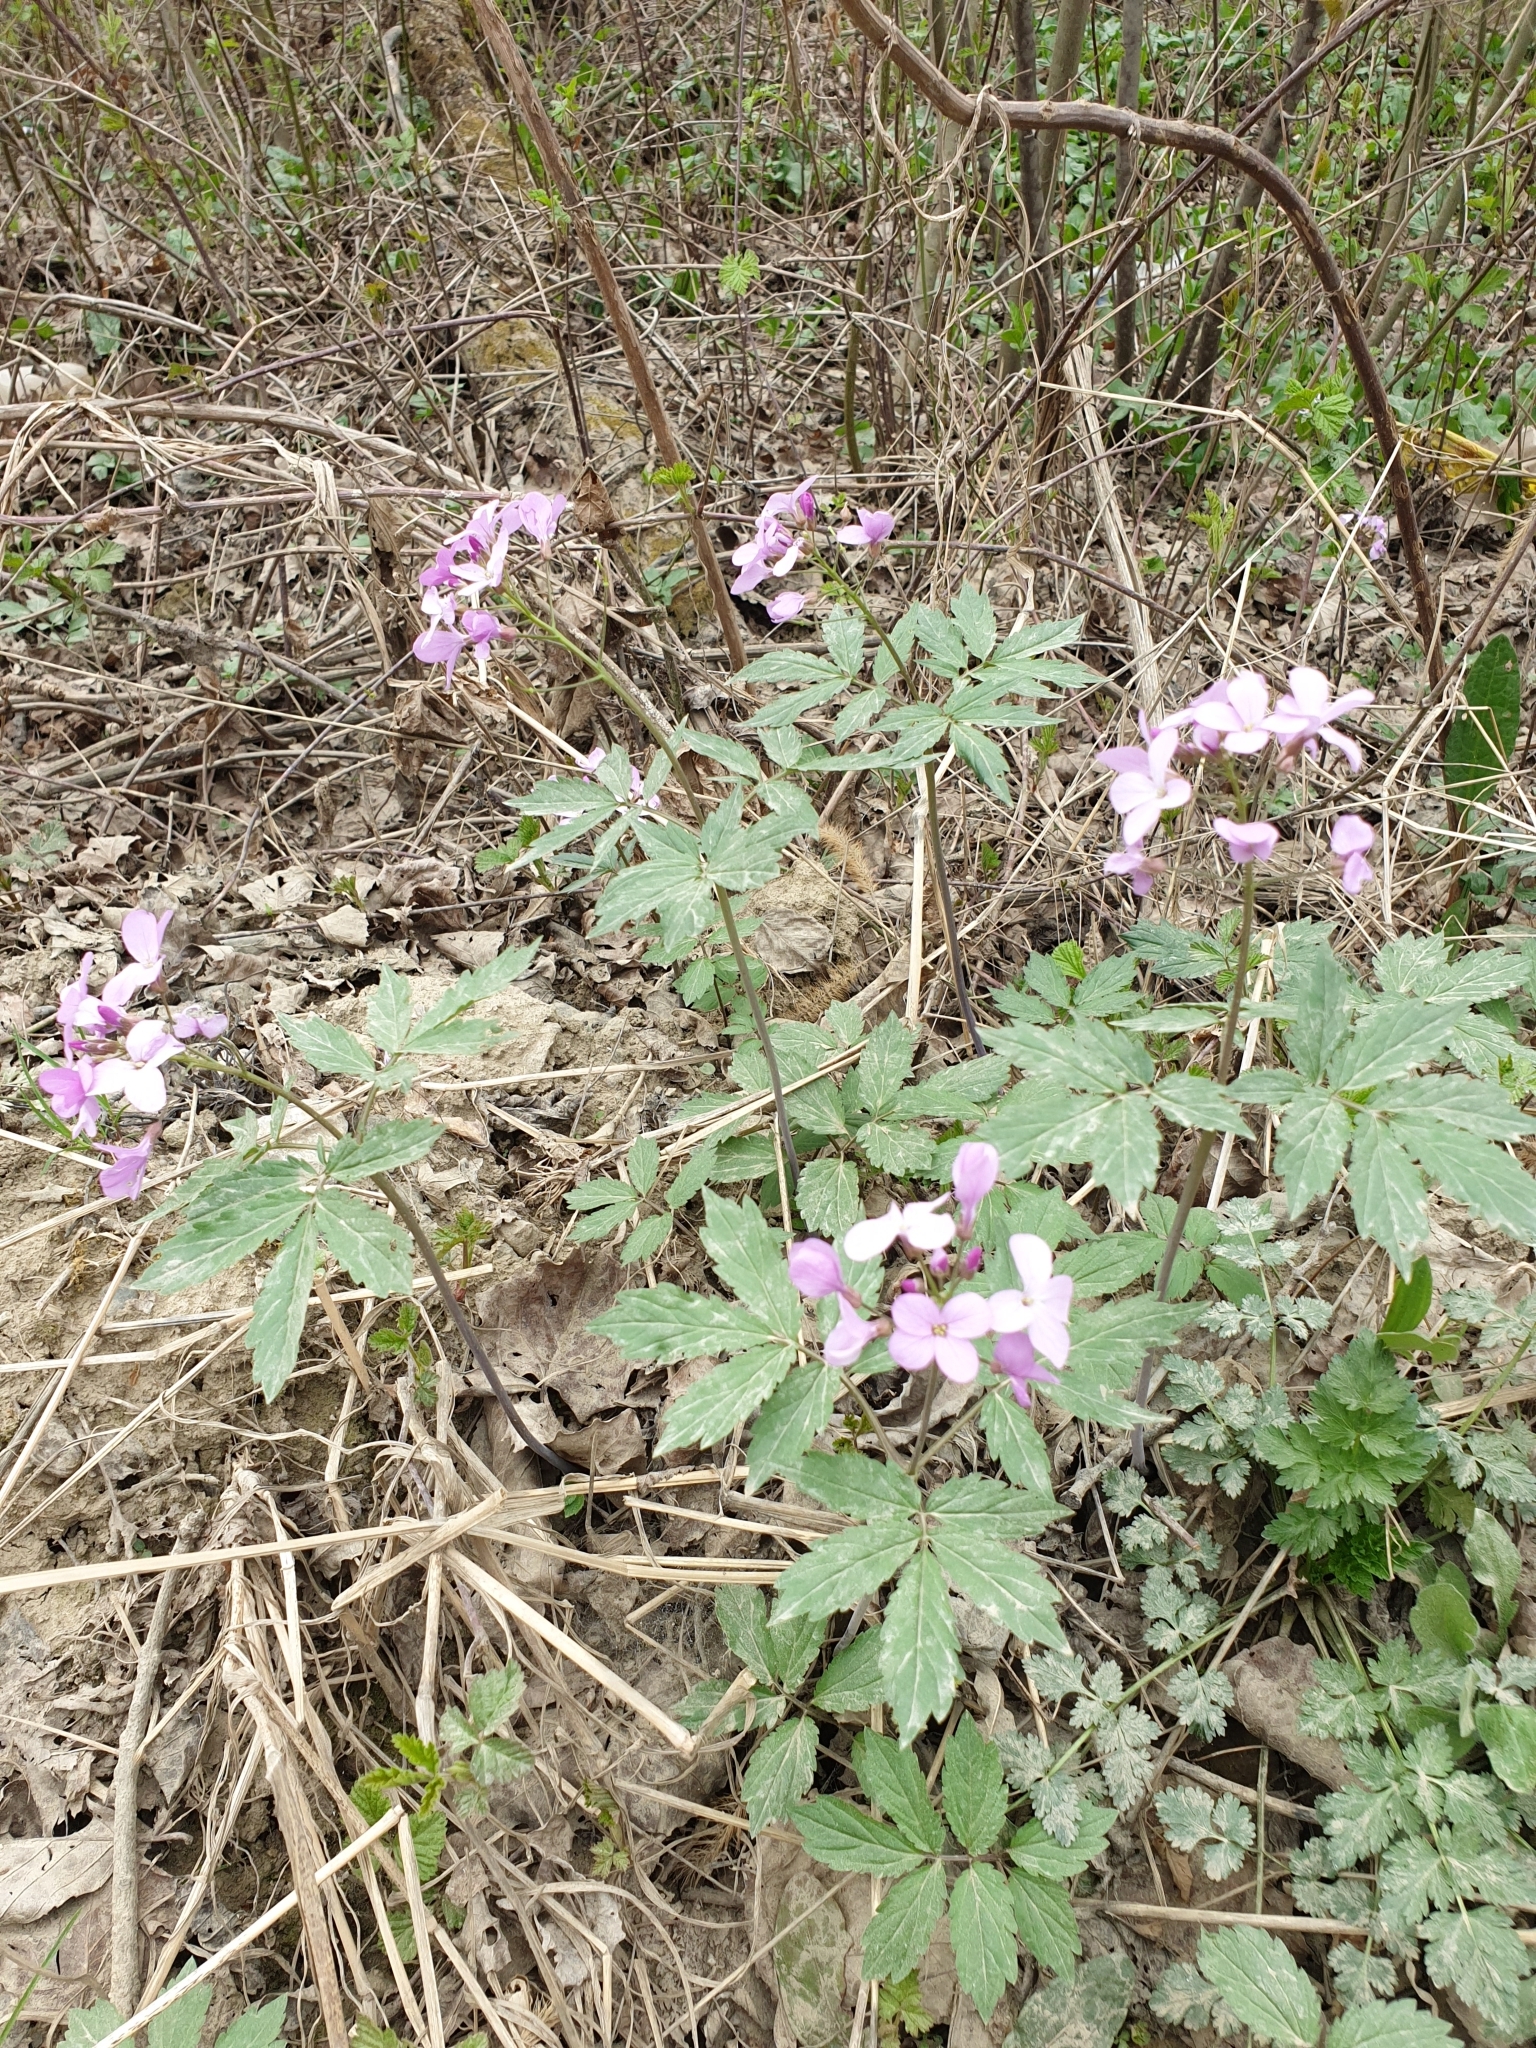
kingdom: Plantae
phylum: Tracheophyta
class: Magnoliopsida
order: Brassicales
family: Brassicaceae
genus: Cardamine
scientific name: Cardamine quinquefolia
